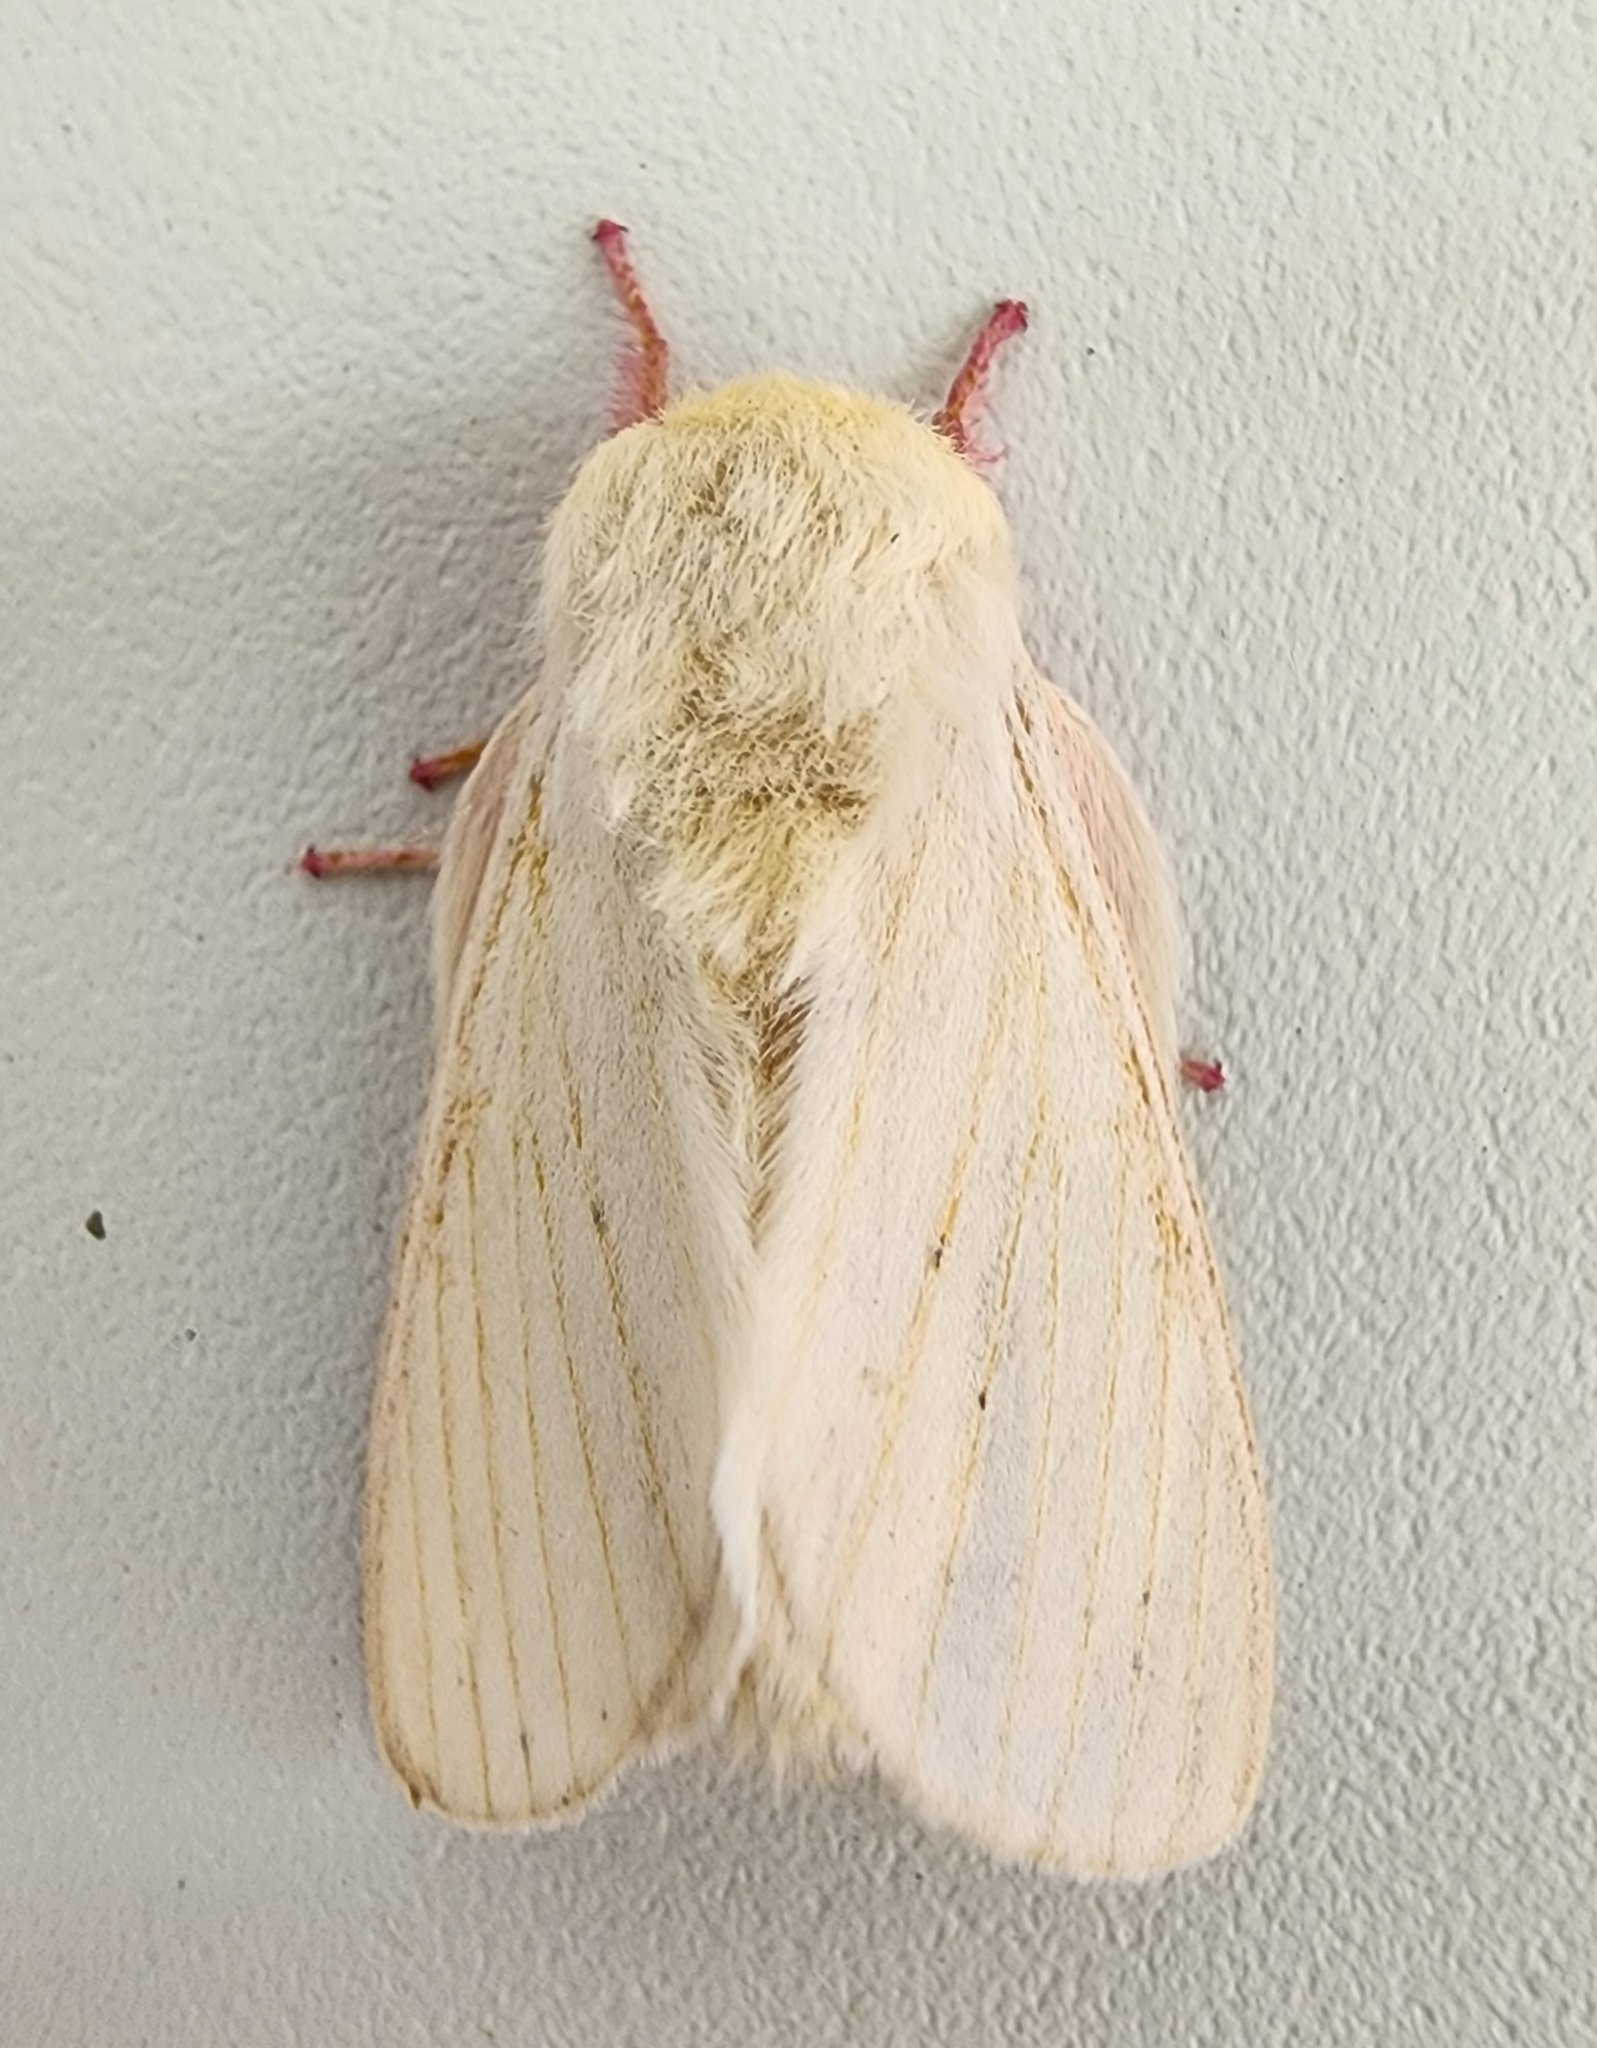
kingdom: Animalia
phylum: Arthropoda
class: Insecta
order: Lepidoptera
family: Saturniidae
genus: Dryocampa
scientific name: Dryocampa rubicunda
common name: Rosy maple moth
